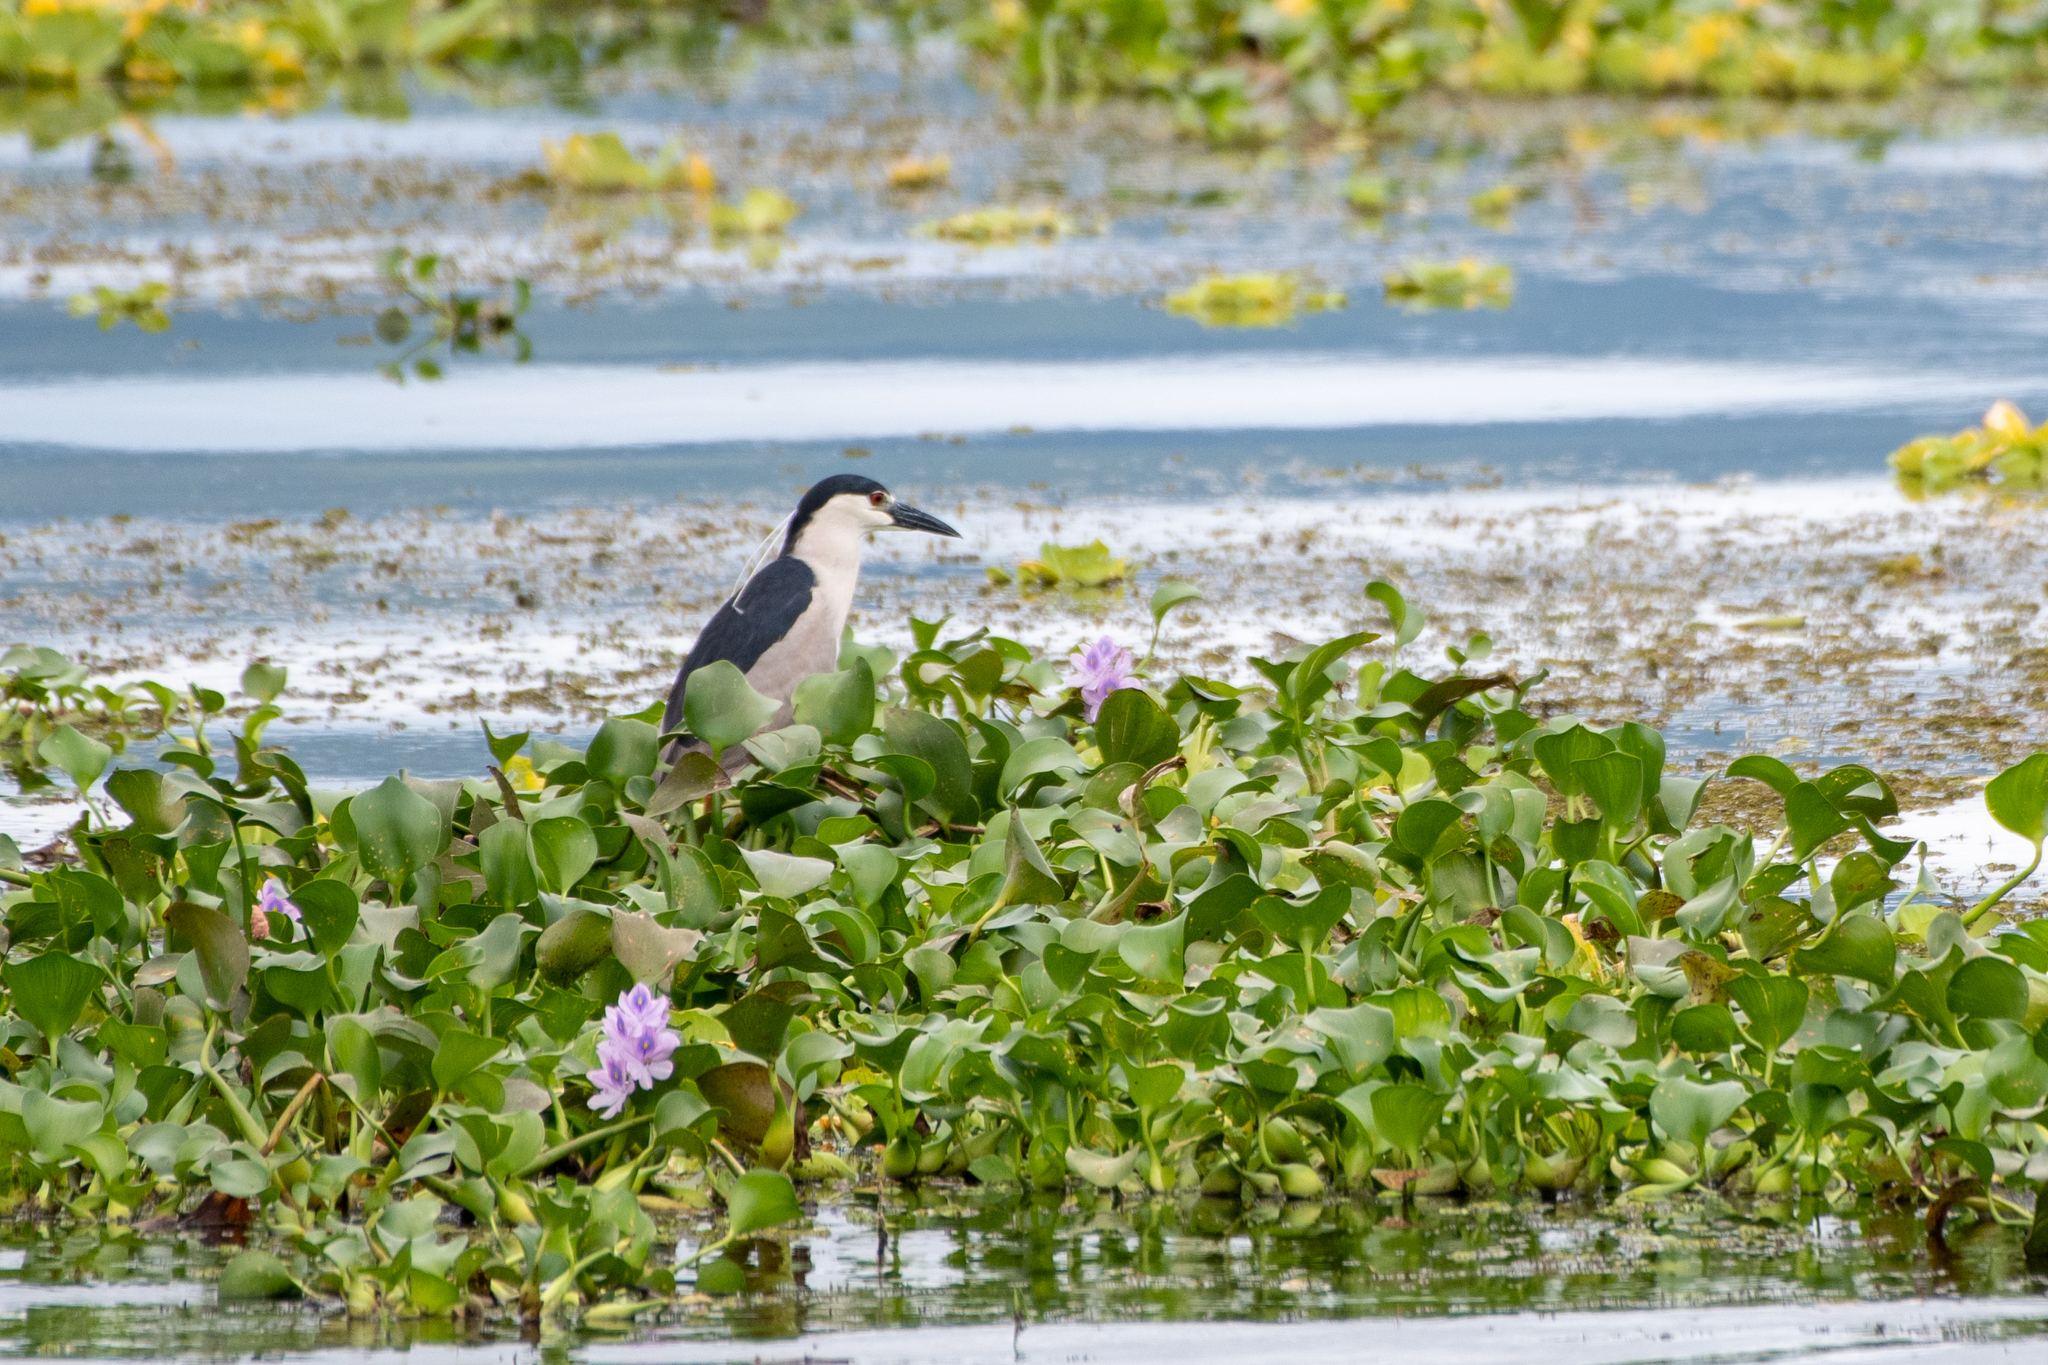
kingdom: Animalia
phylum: Chordata
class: Aves
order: Pelecaniformes
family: Ardeidae
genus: Nycticorax
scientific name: Nycticorax nycticorax
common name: Black-crowned night heron
